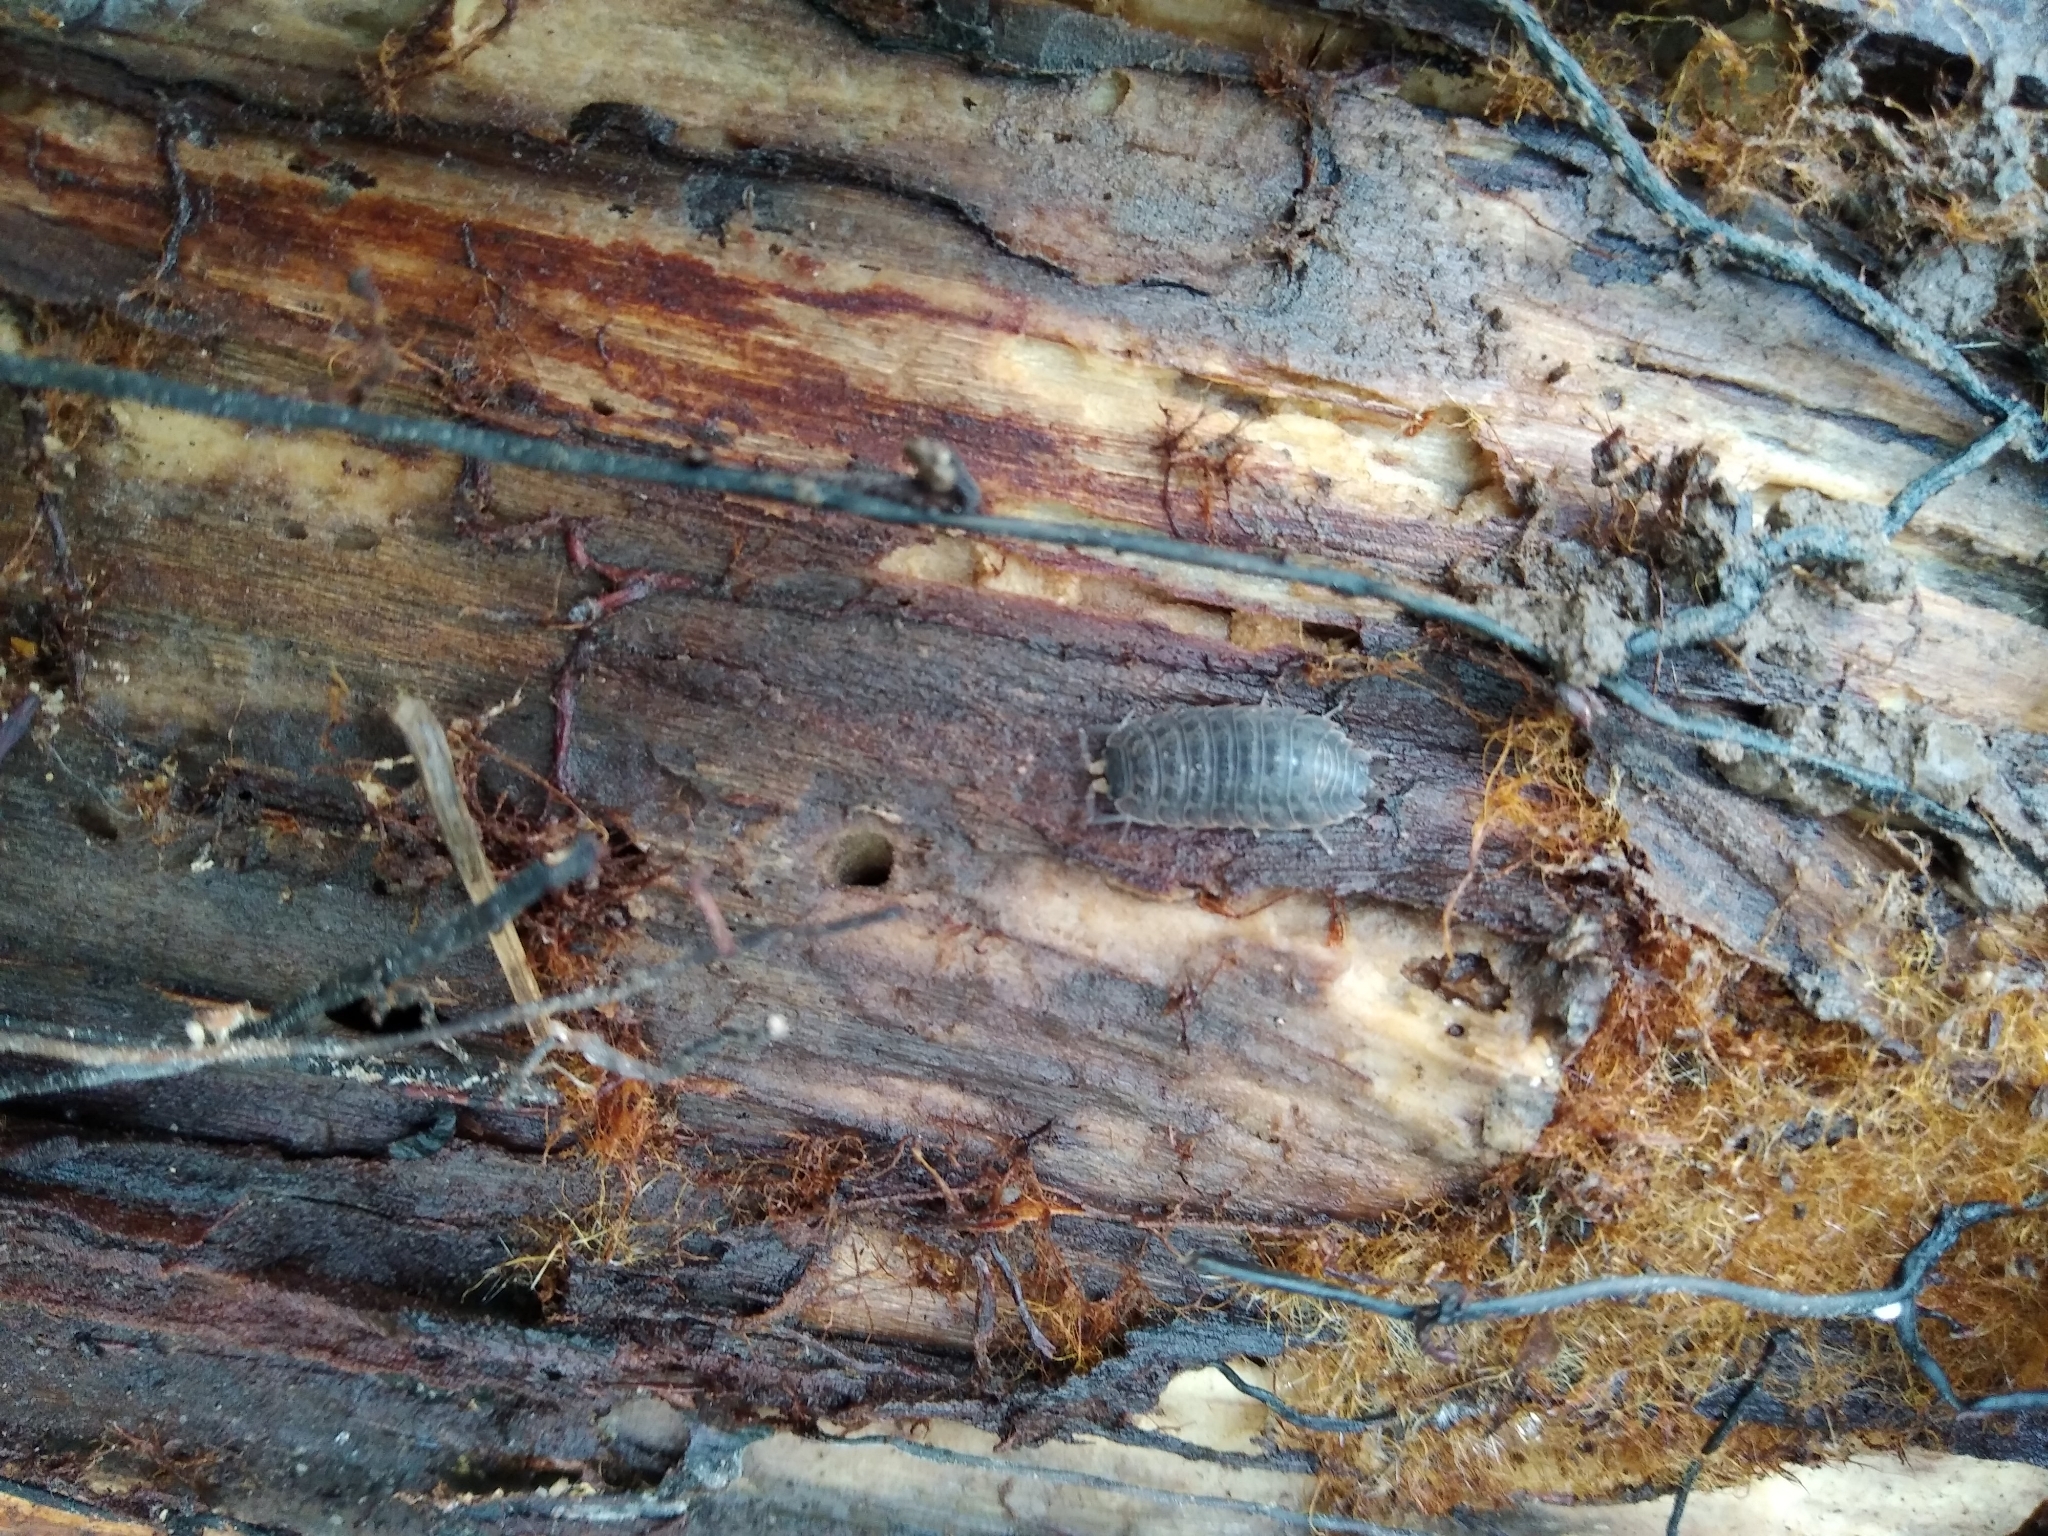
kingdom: Animalia
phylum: Arthropoda
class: Malacostraca
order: Isopoda
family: Trachelipodidae
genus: Trachelipus
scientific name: Trachelipus rathkii
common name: Isopod
